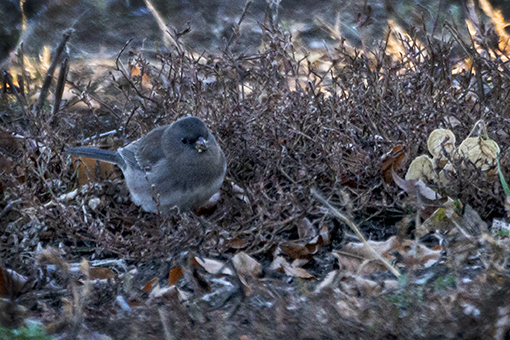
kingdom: Animalia
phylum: Chordata
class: Aves
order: Passeriformes
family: Passerellidae
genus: Junco
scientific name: Junco hyemalis
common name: Dark-eyed junco
